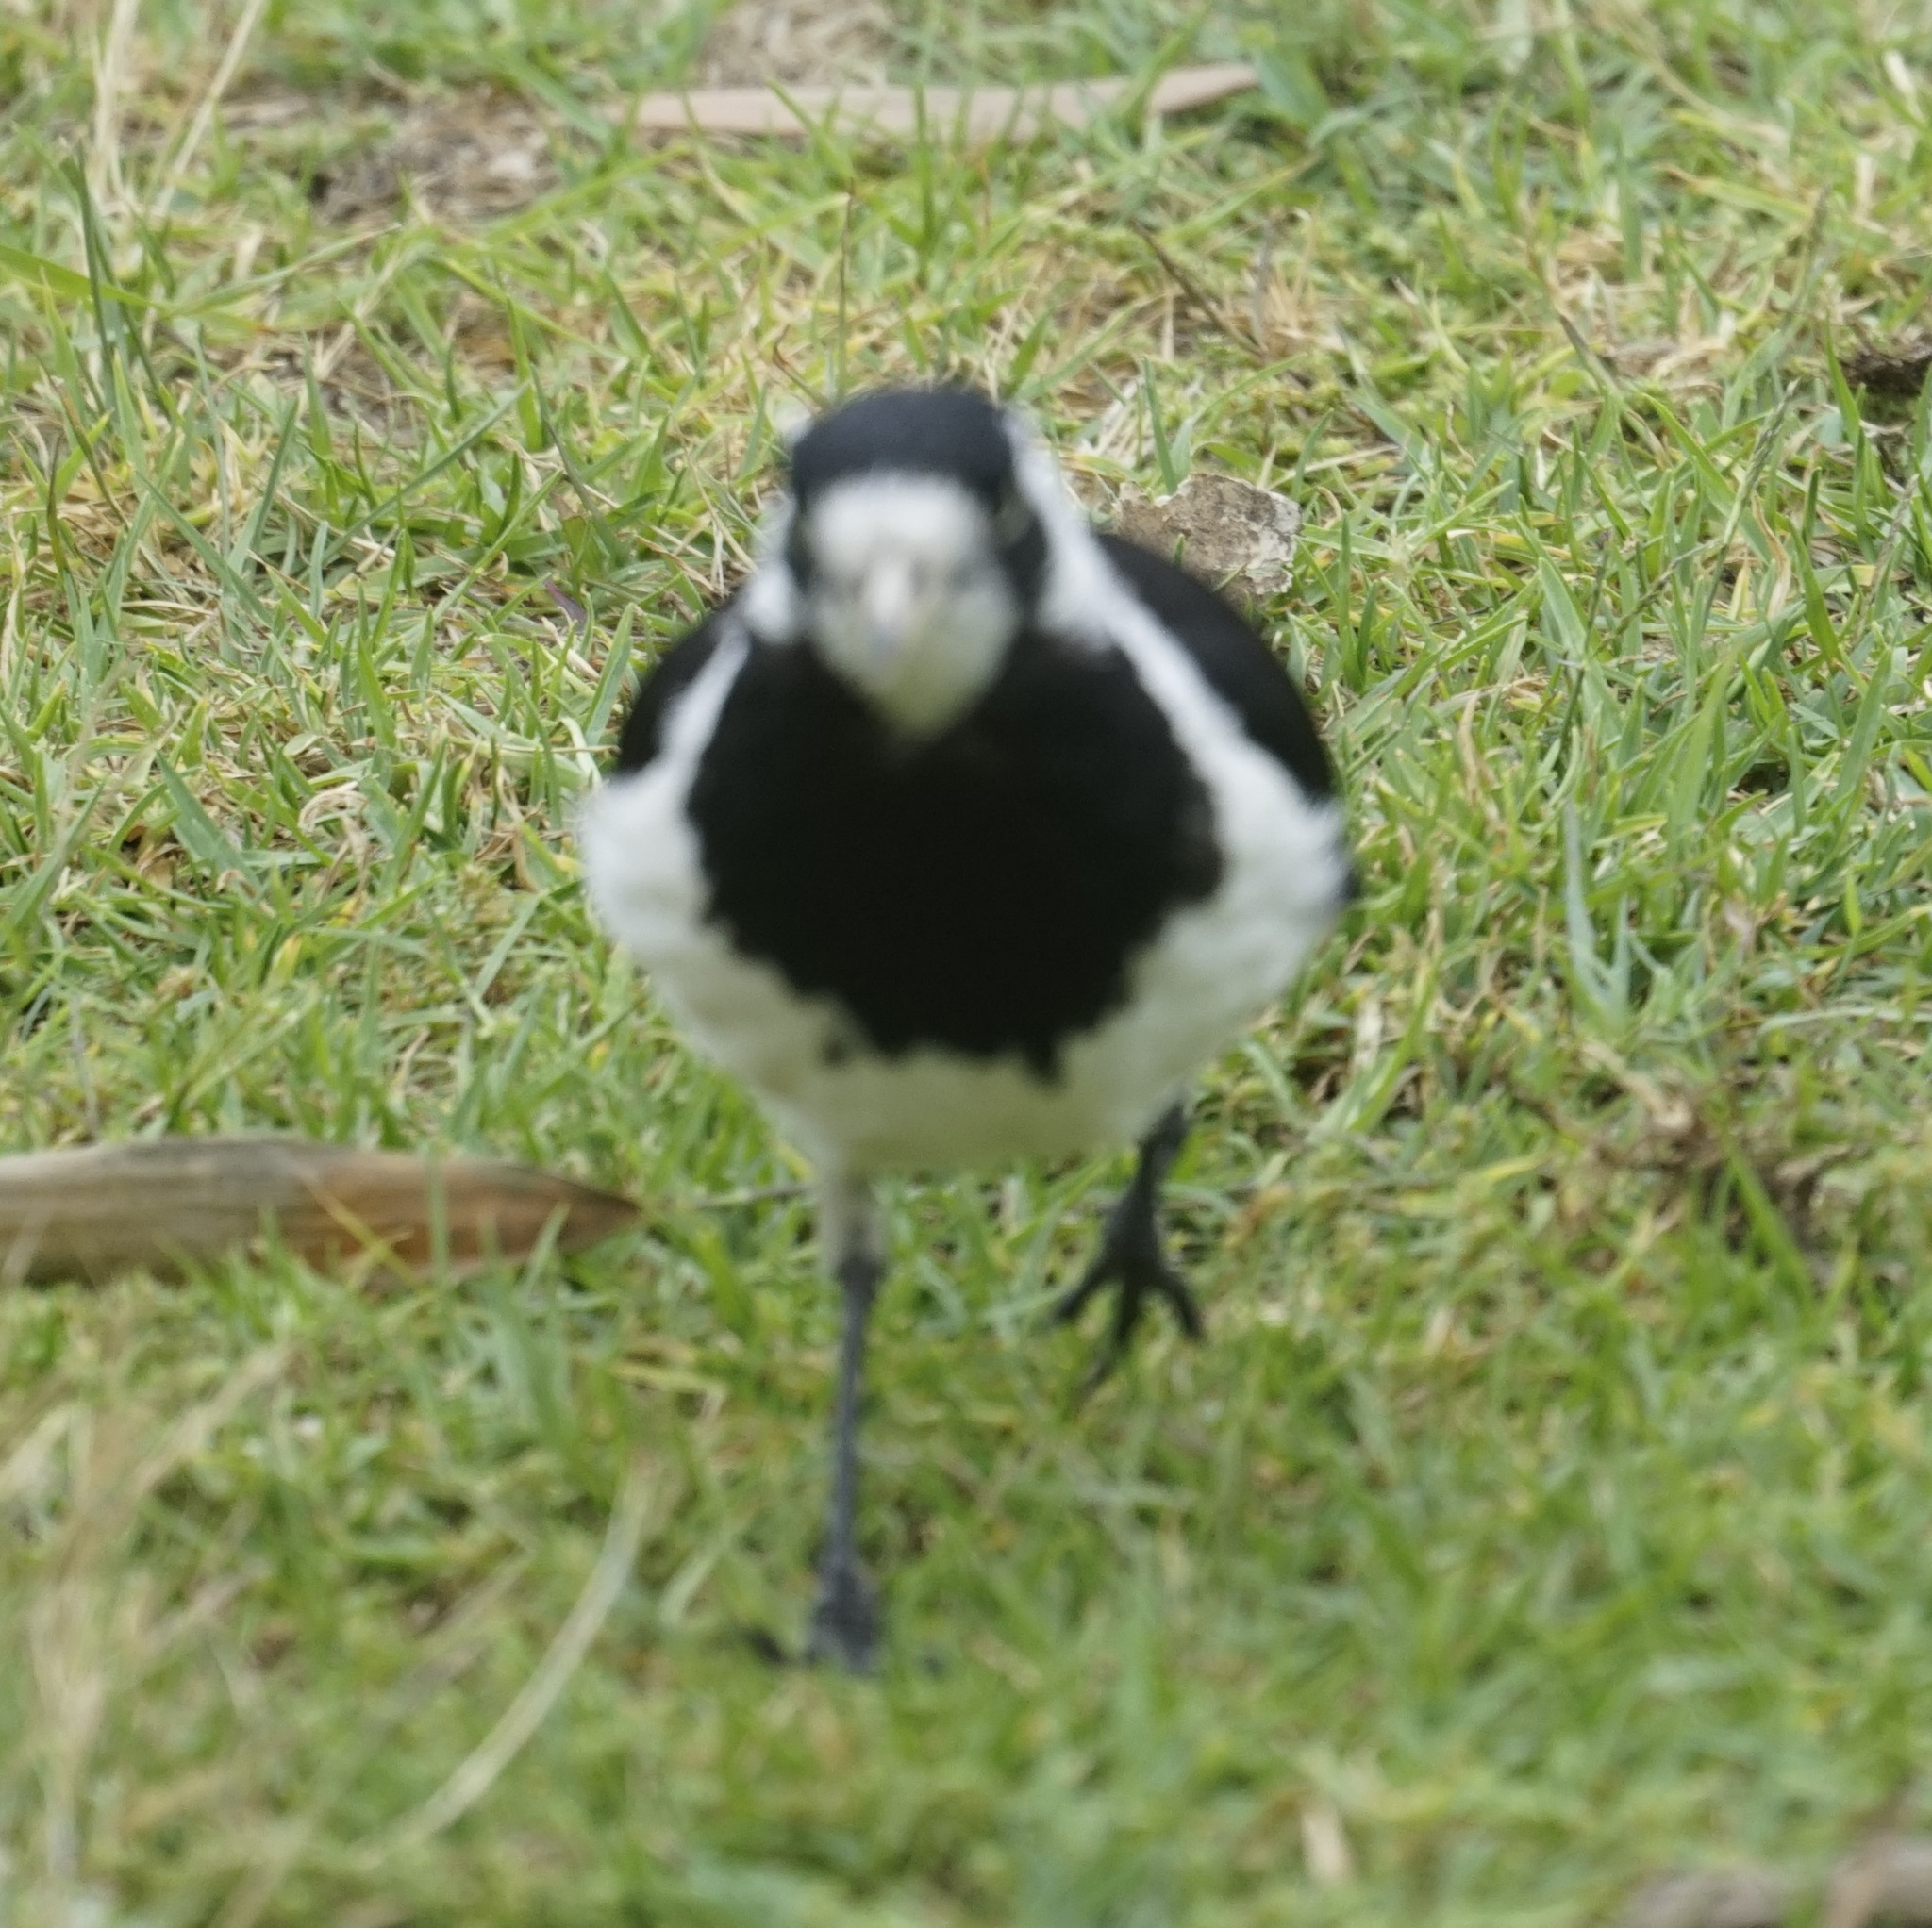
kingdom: Animalia
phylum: Chordata
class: Aves
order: Passeriformes
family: Monarchidae
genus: Grallina
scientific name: Grallina cyanoleuca
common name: Magpie-lark
